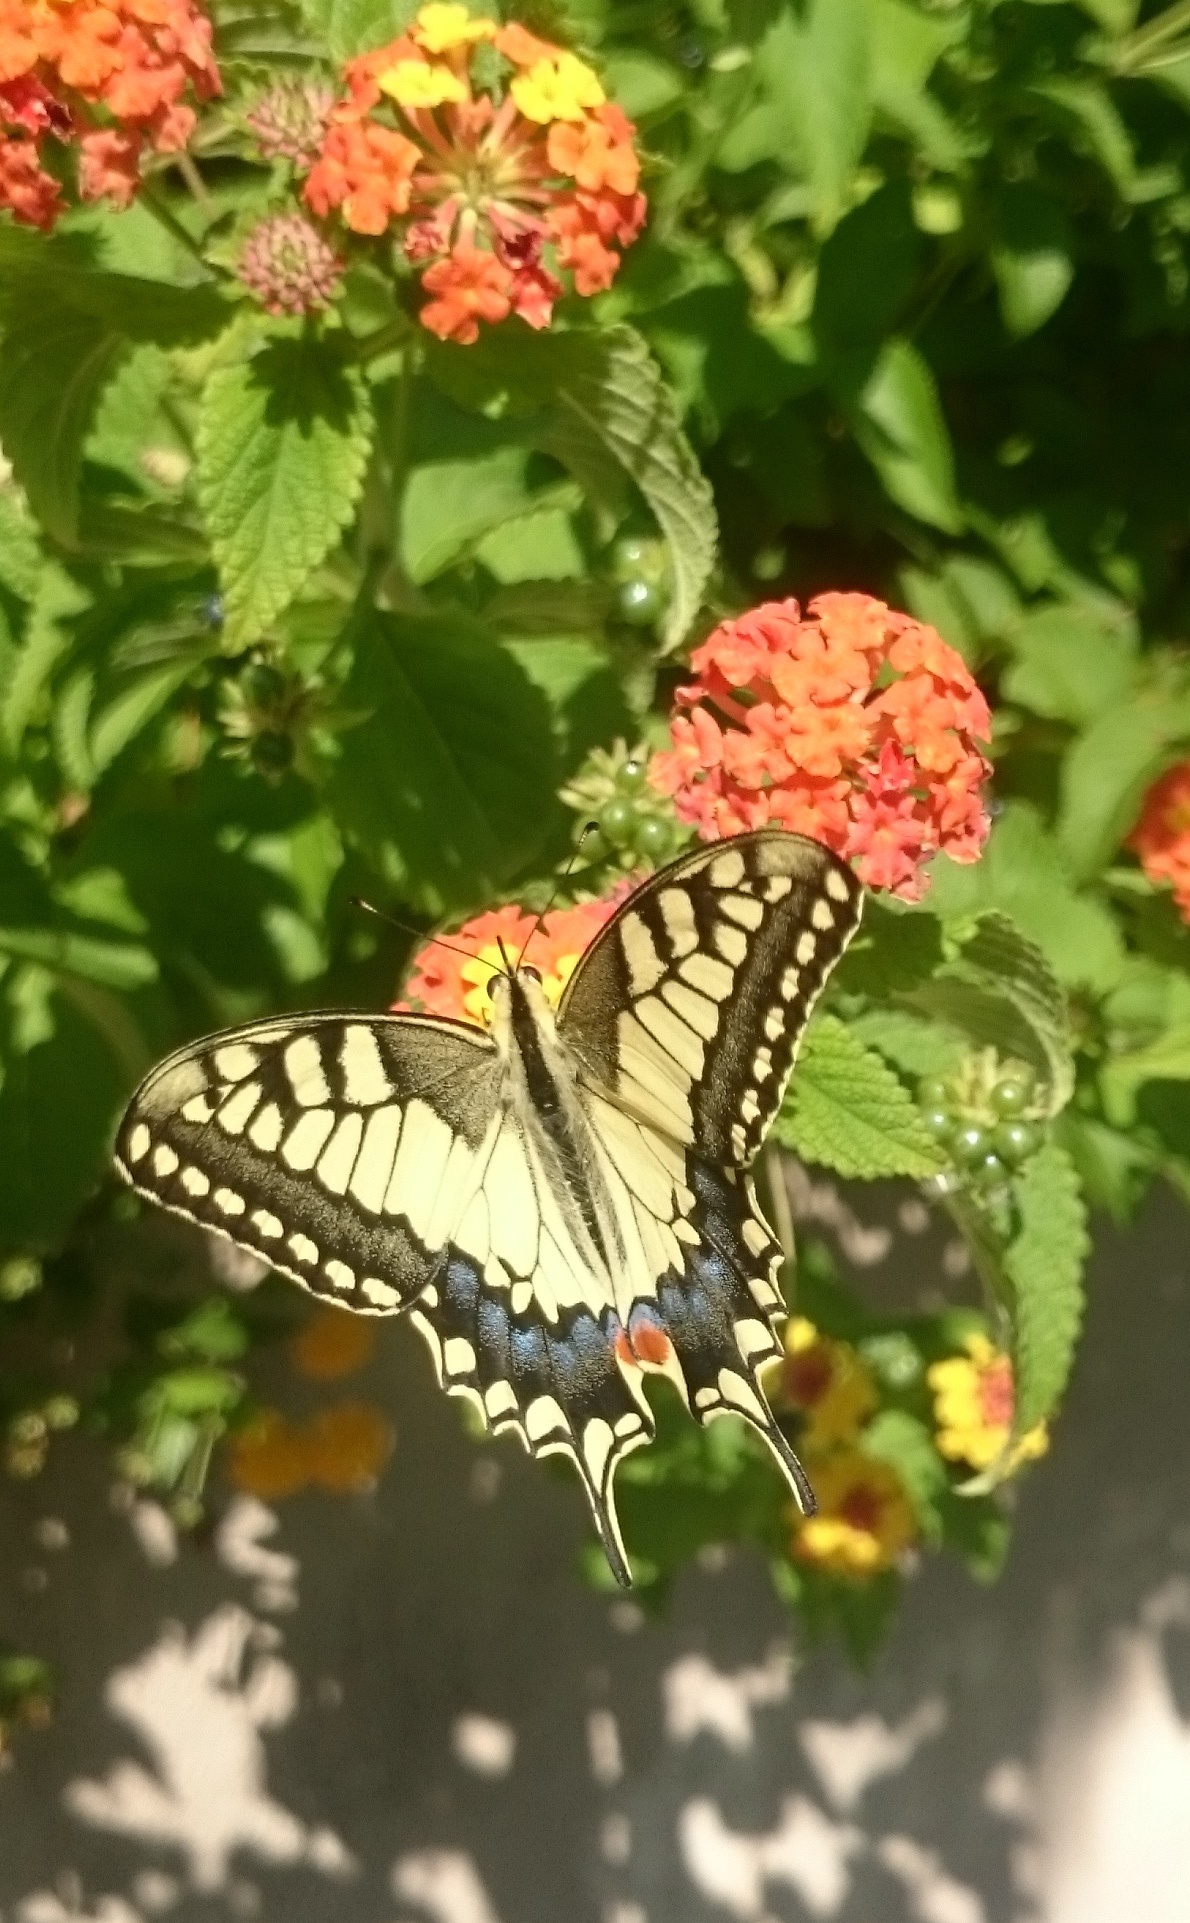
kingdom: Animalia
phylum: Arthropoda
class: Insecta
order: Lepidoptera
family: Papilionidae
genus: Papilio
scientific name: Papilio machaon
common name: Swallowtail
